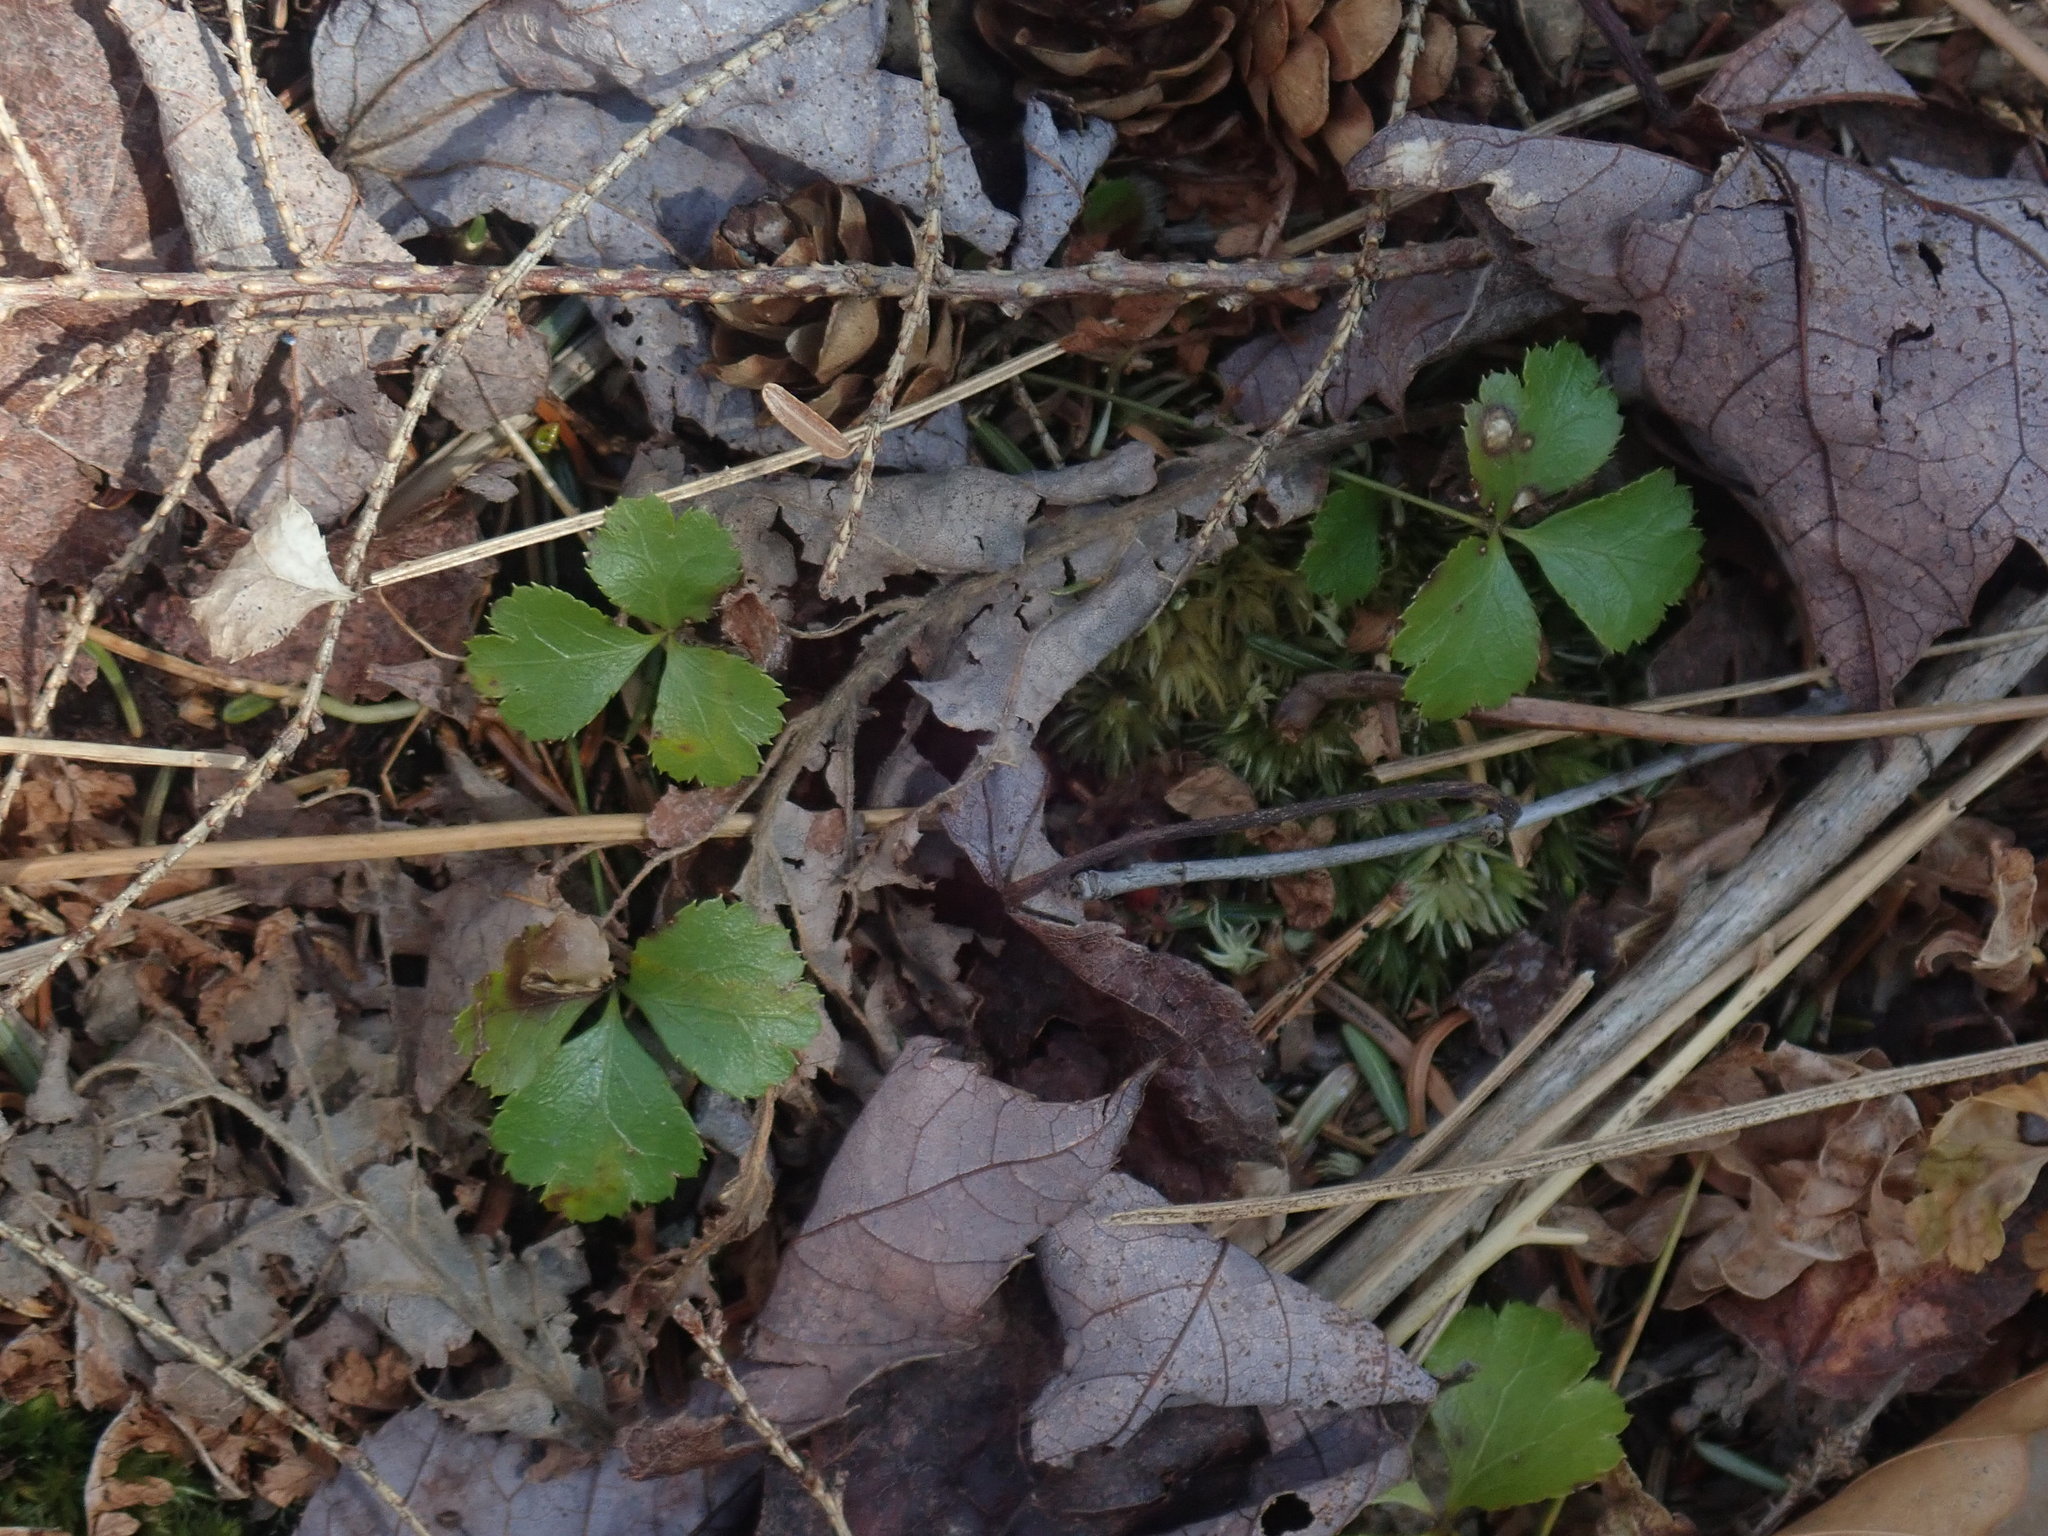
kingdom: Plantae
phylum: Tracheophyta
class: Magnoliopsida
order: Ranunculales
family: Ranunculaceae
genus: Coptis
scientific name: Coptis trifolia
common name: Canker-root
